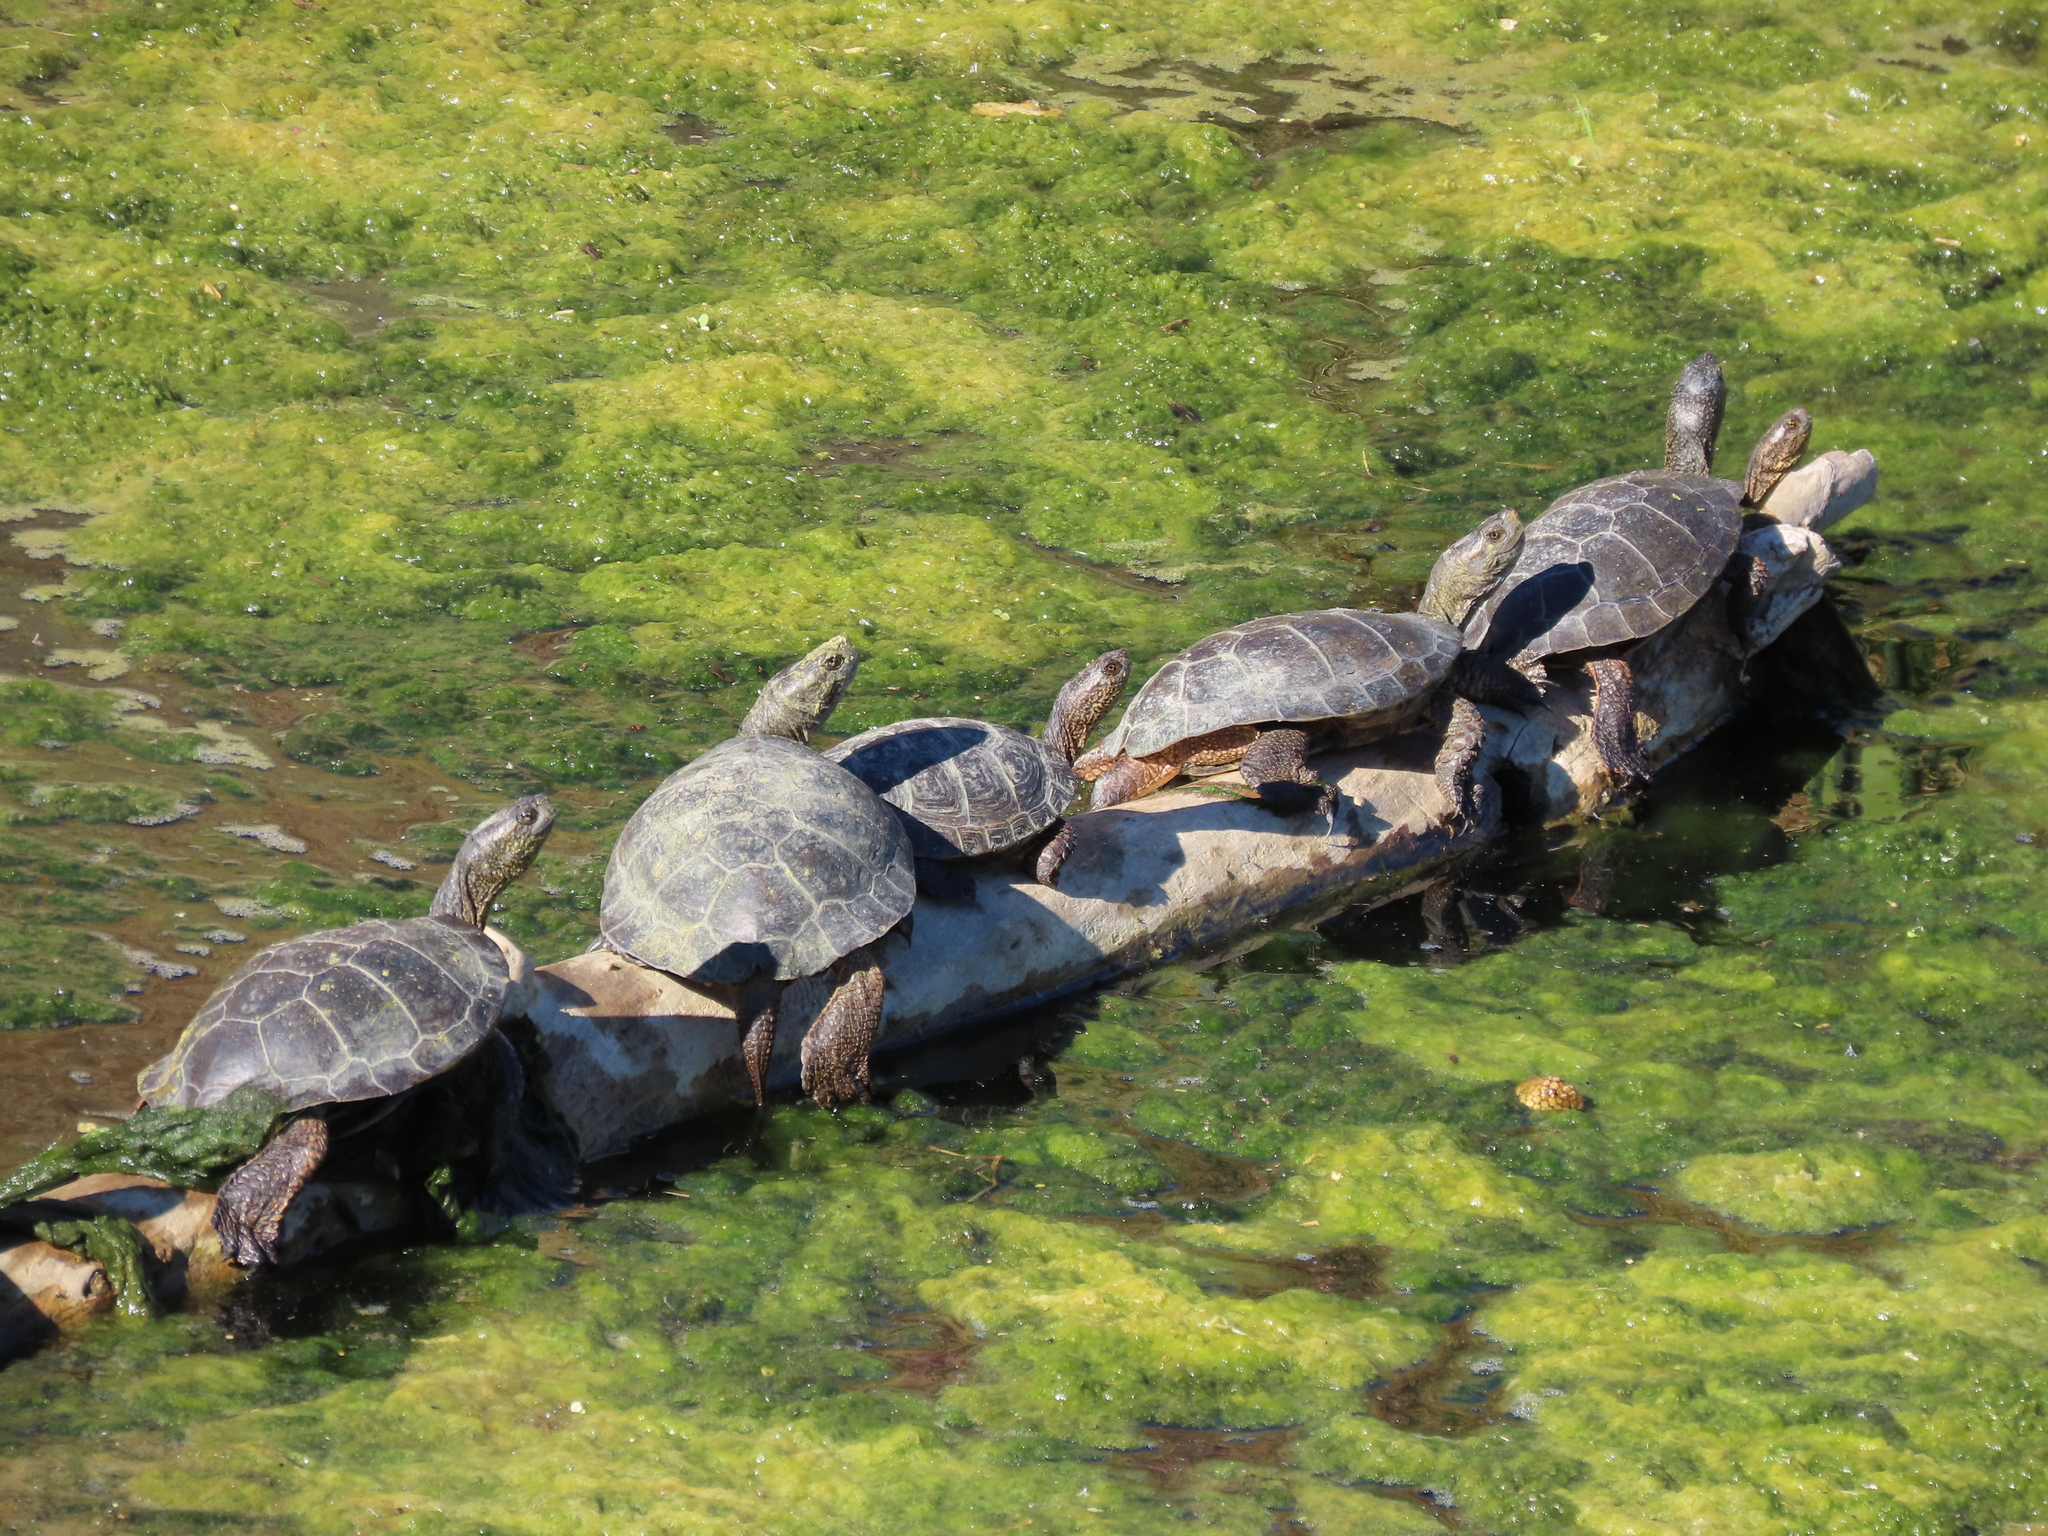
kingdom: Animalia
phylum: Chordata
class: Testudines
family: Emydidae
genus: Actinemys
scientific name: Actinemys marmorata
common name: Western pond turtle
